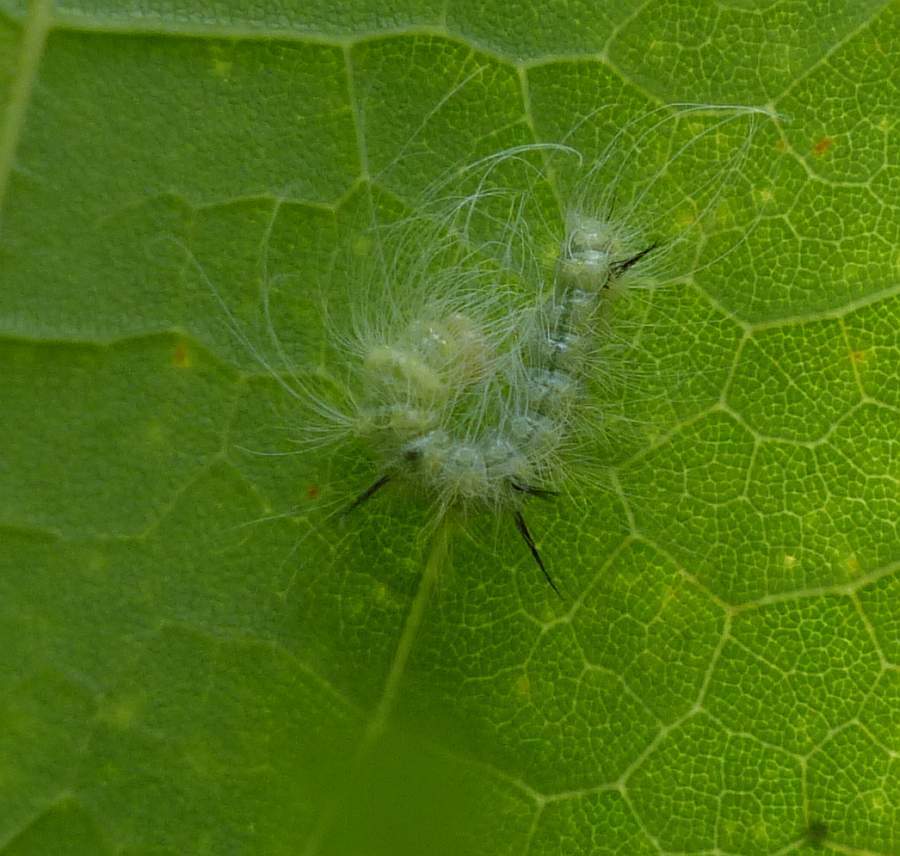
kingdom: Animalia
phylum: Arthropoda
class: Insecta
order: Lepidoptera
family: Noctuidae
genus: Acronicta
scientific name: Acronicta americana
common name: American dagger
